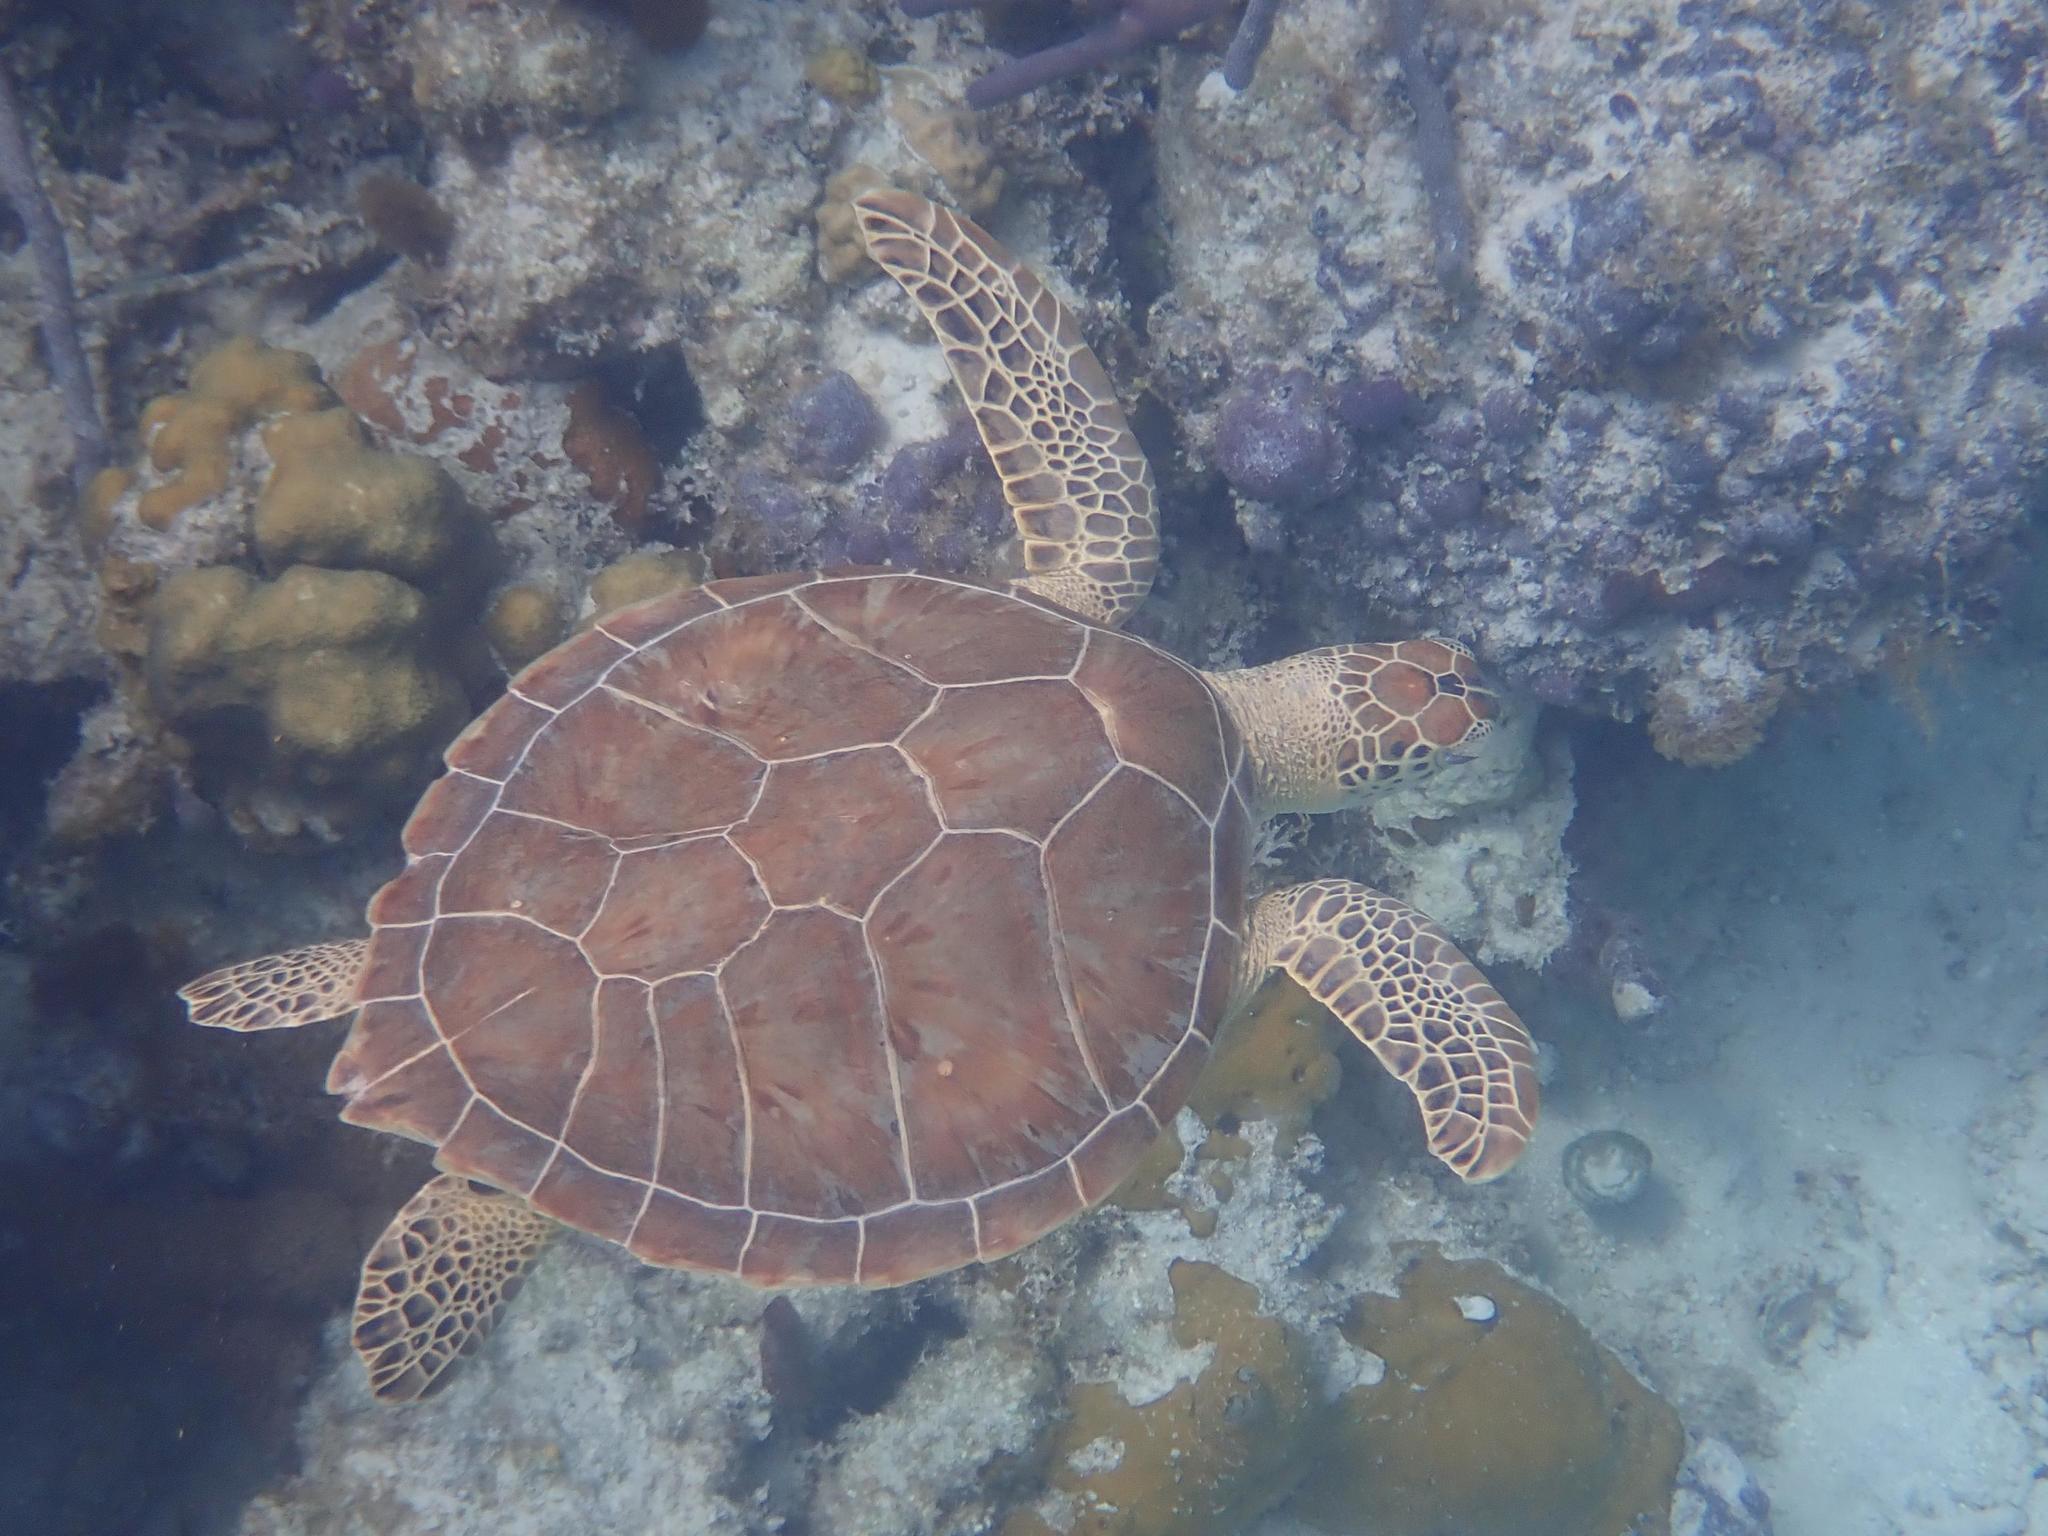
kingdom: Animalia
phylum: Chordata
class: Testudines
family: Cheloniidae
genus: Chelonia
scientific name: Chelonia mydas
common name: Green turtle
